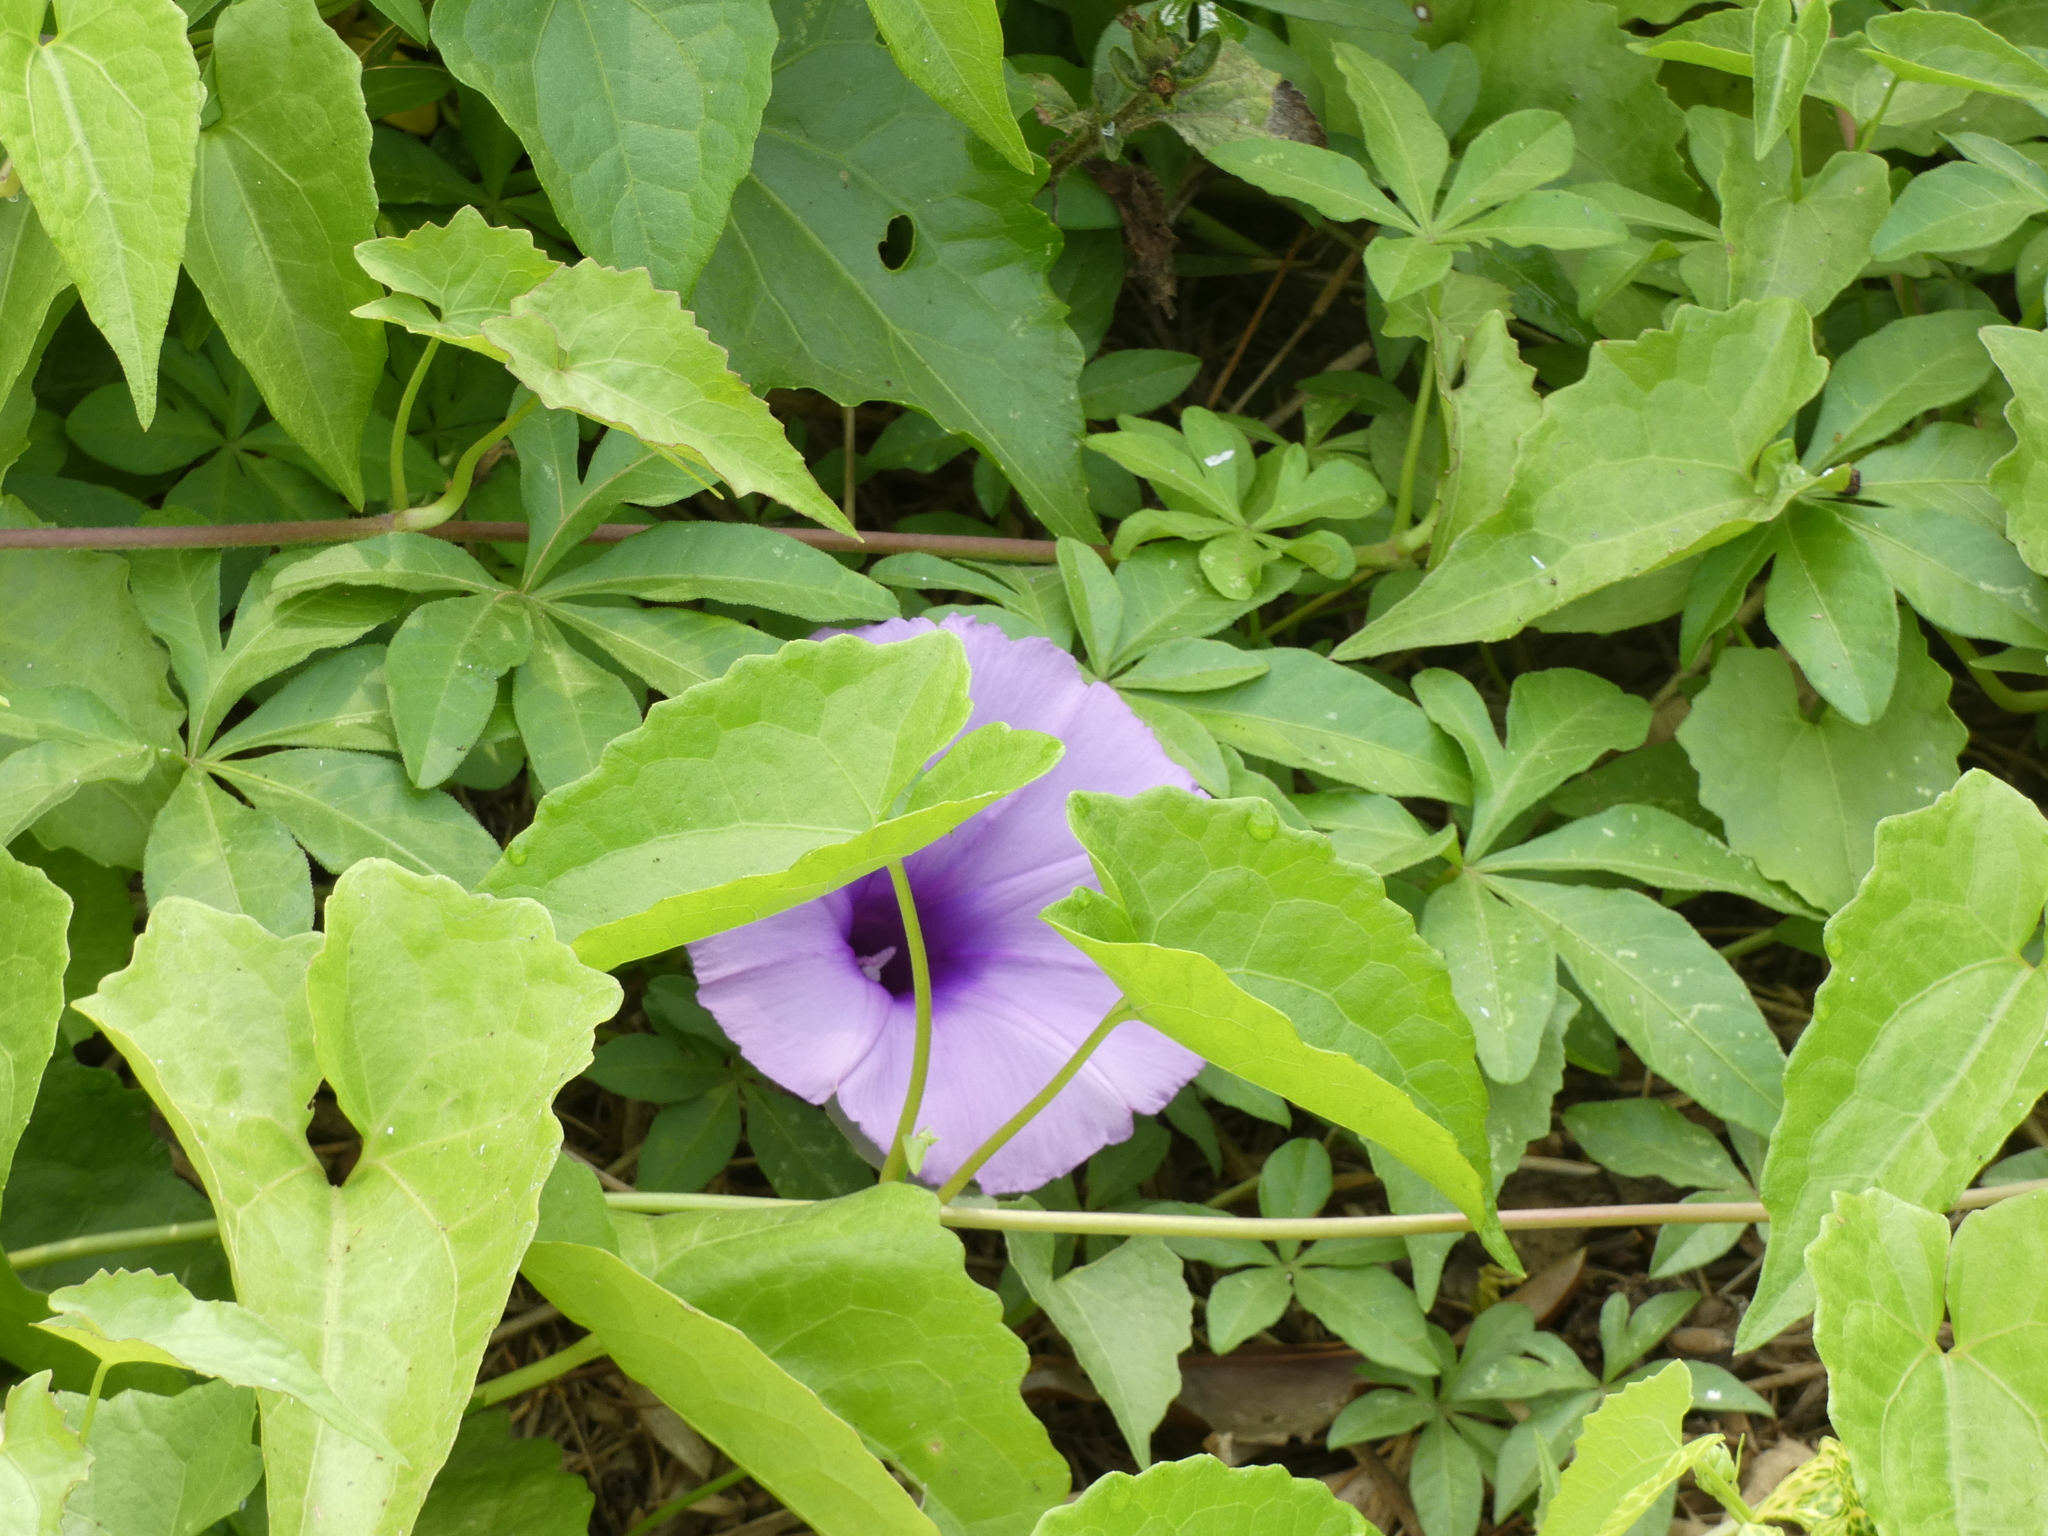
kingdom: Plantae
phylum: Tracheophyta
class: Magnoliopsida
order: Solanales
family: Convolvulaceae
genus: Ipomoea
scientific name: Ipomoea cairica
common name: Mile a minute vine
